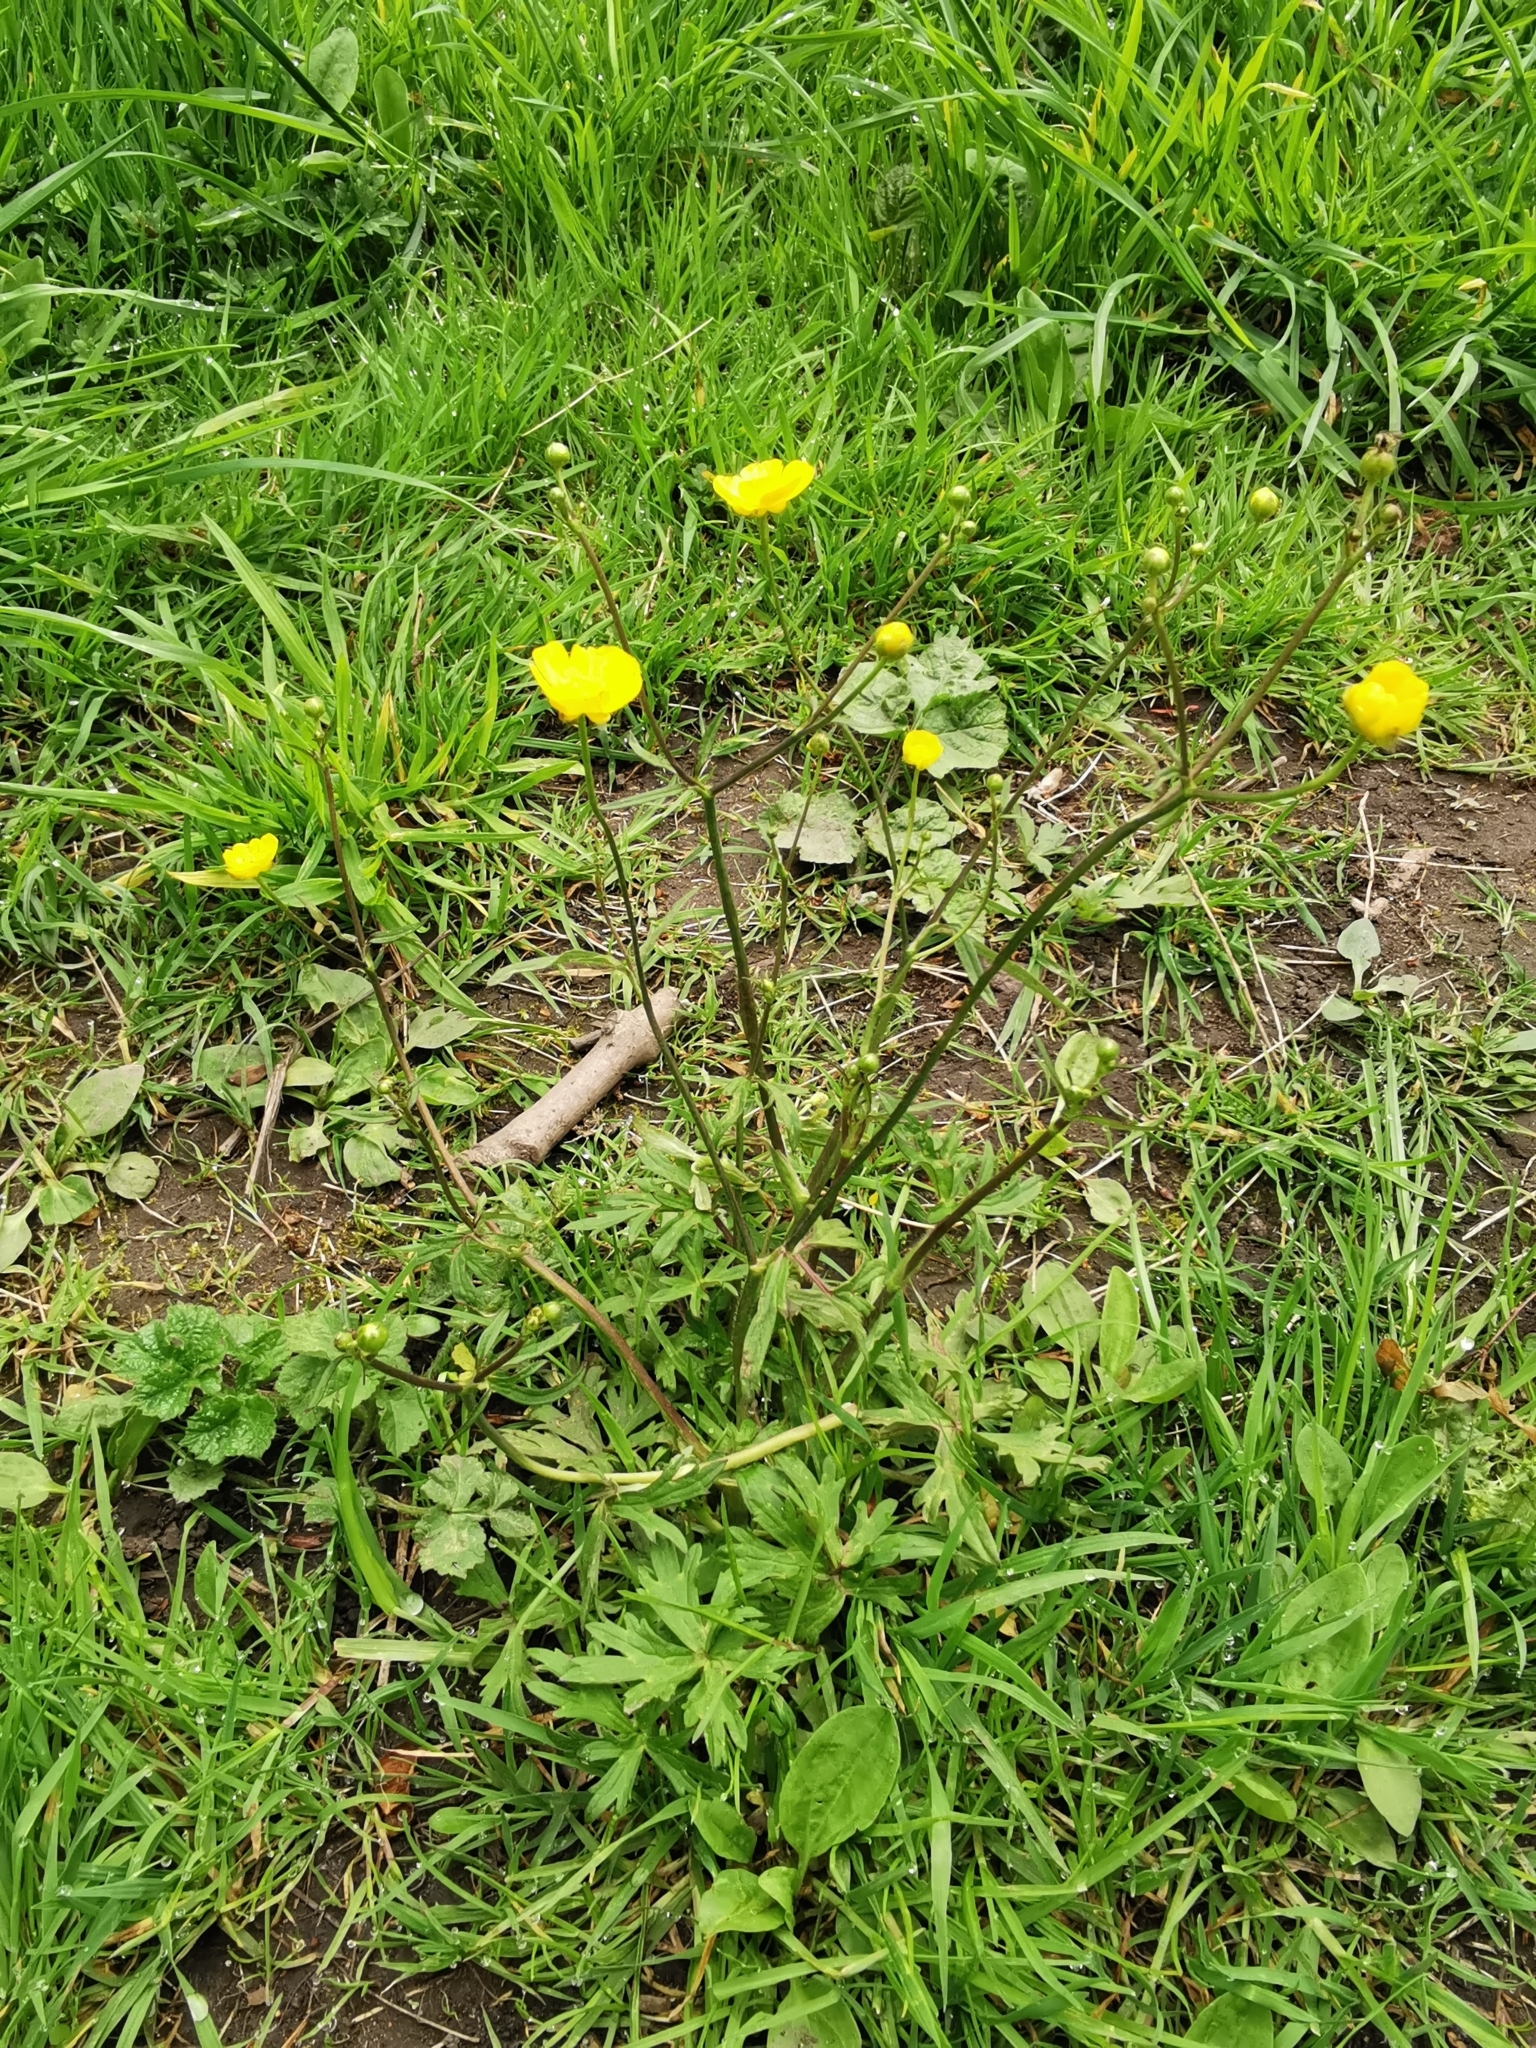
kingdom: Plantae
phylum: Tracheophyta
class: Magnoliopsida
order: Ranunculales
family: Ranunculaceae
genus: Ranunculus
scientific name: Ranunculus acris
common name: Meadow buttercup
